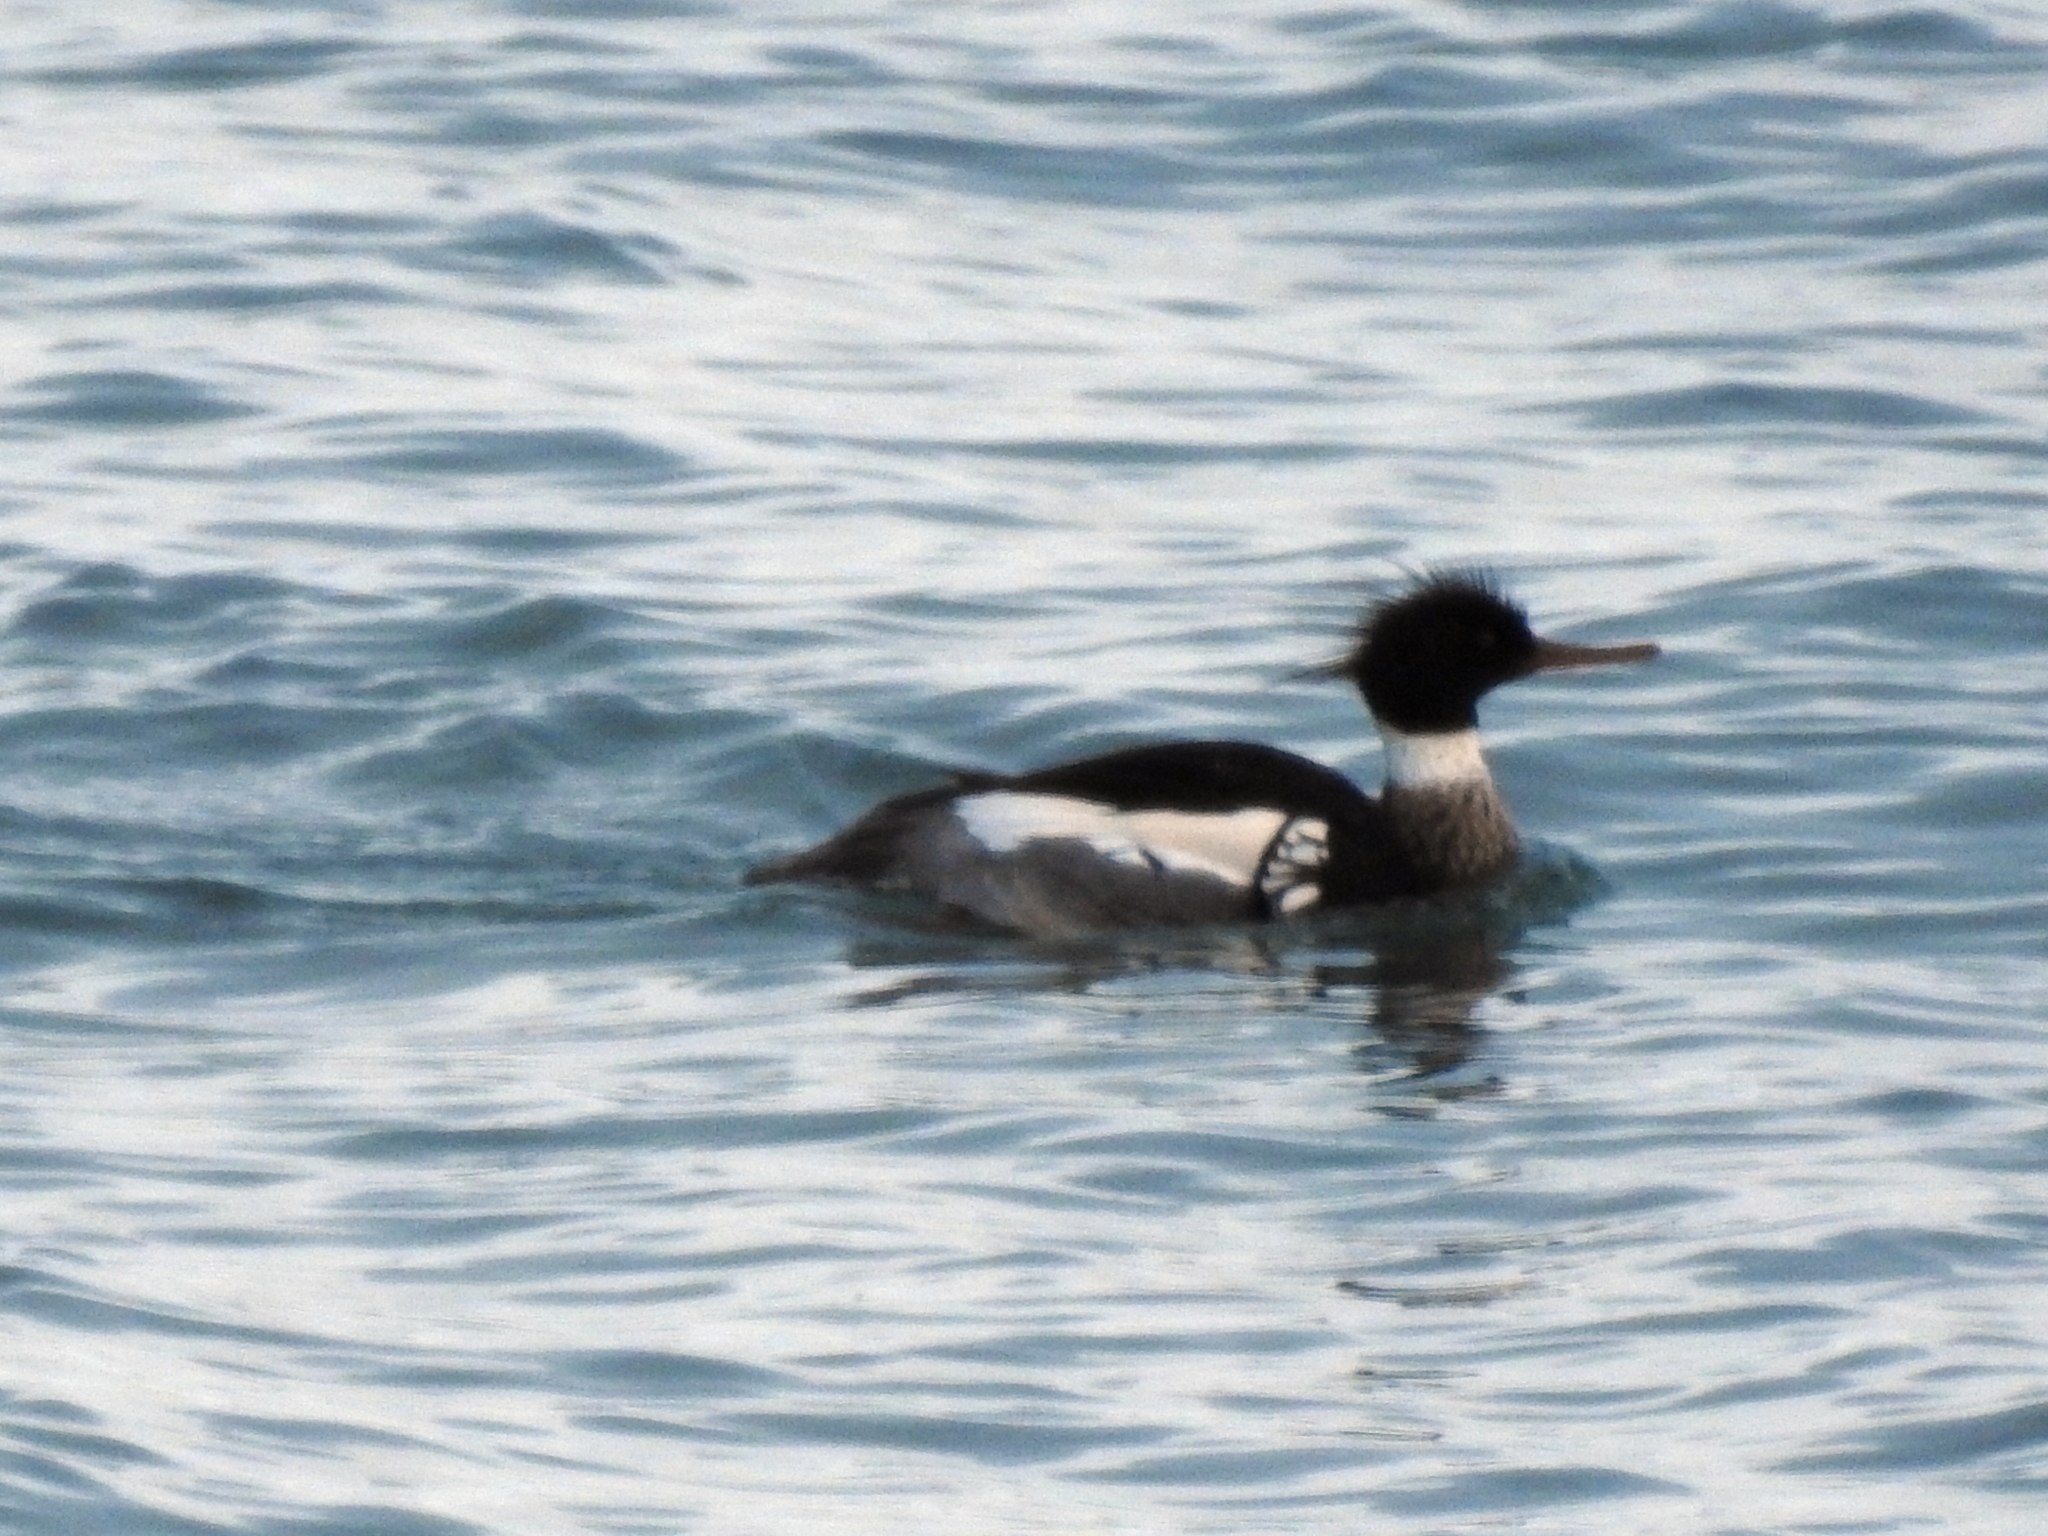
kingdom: Animalia
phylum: Chordata
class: Aves
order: Anseriformes
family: Anatidae
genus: Mergus
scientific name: Mergus serrator
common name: Red-breasted merganser
